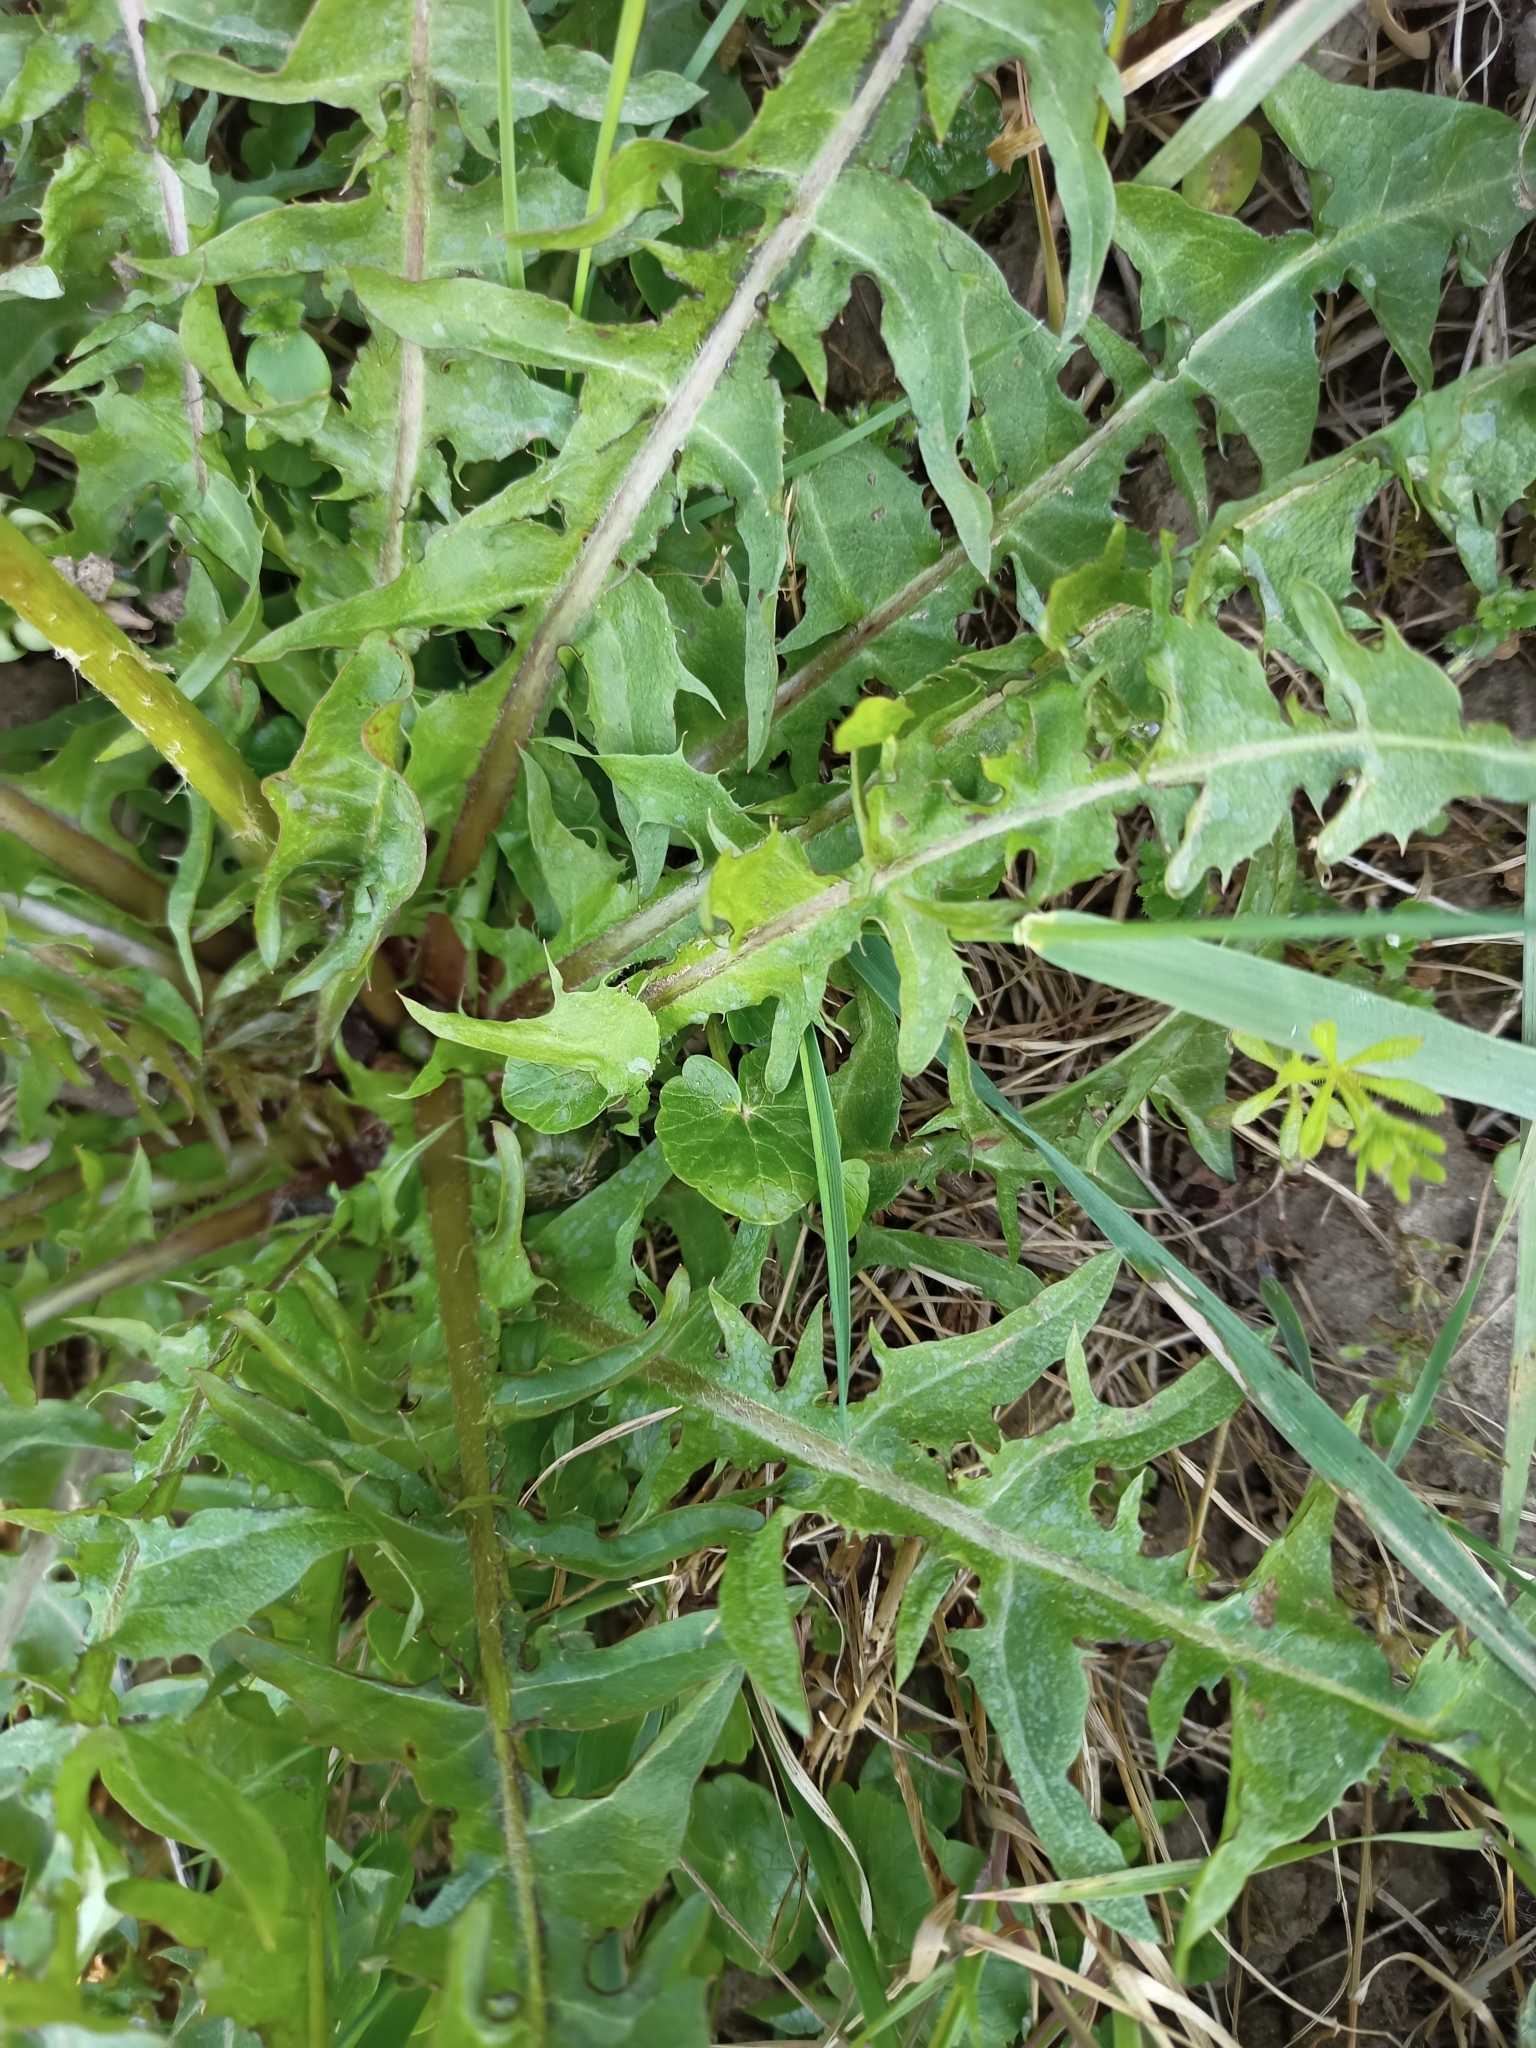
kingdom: Plantae
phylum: Tracheophyta
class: Magnoliopsida
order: Asterales
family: Asteraceae
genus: Taraxacum
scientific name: Taraxacum officinale
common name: Common dandelion
